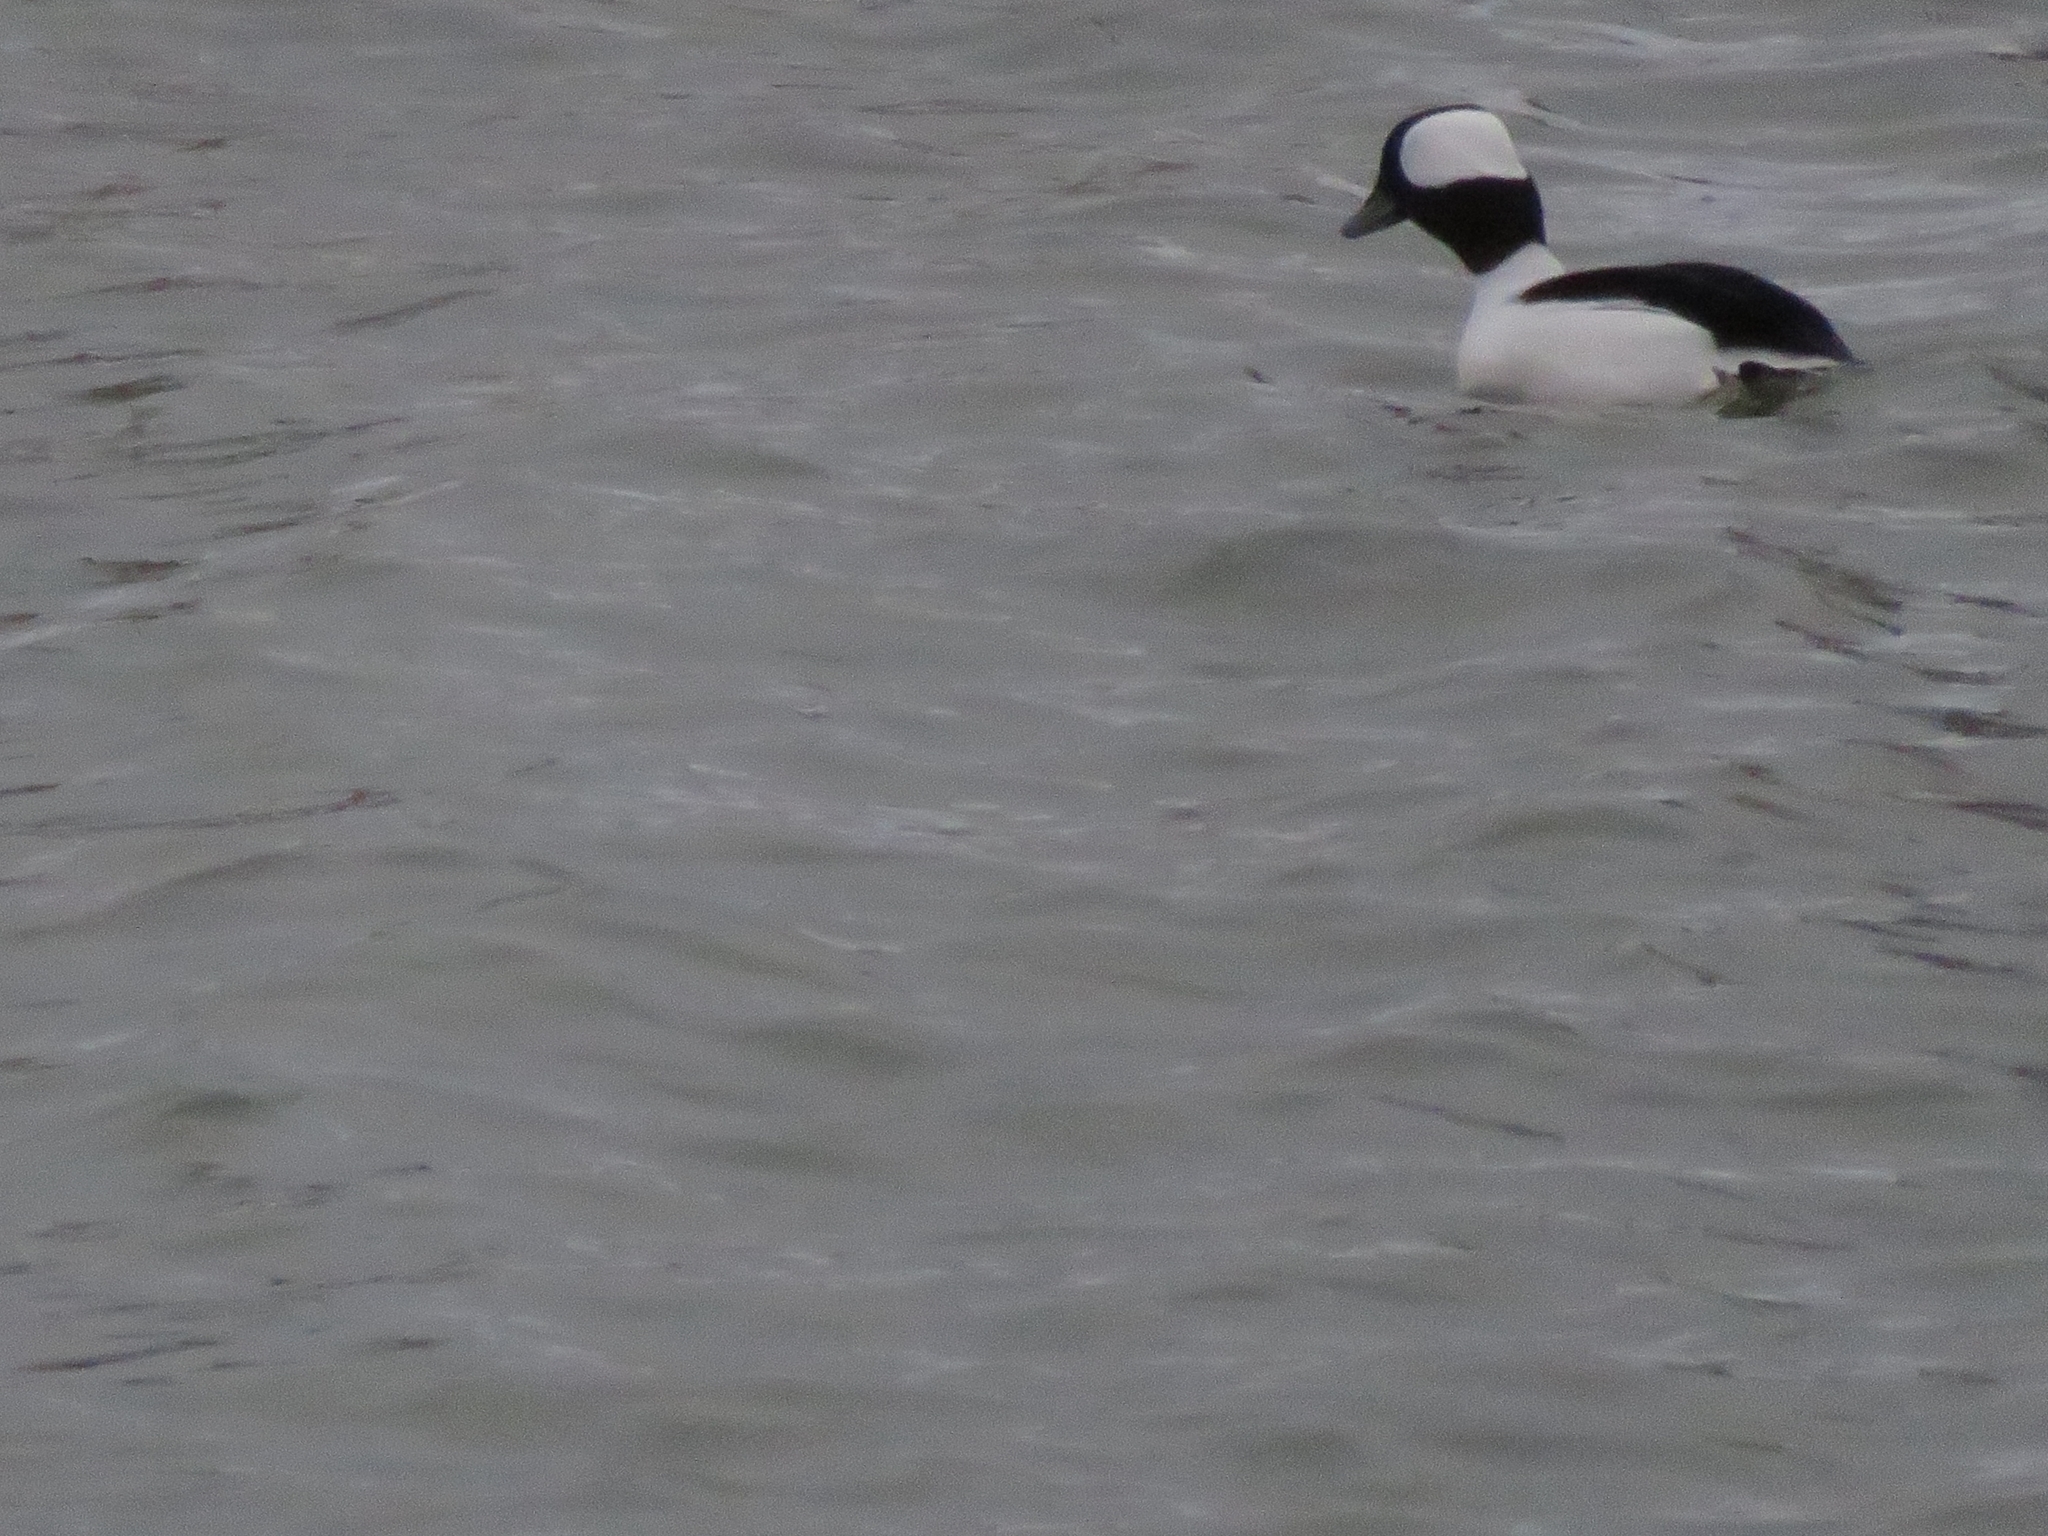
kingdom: Animalia
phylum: Chordata
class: Aves
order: Anseriformes
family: Anatidae
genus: Bucephala
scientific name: Bucephala albeola
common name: Bufflehead
